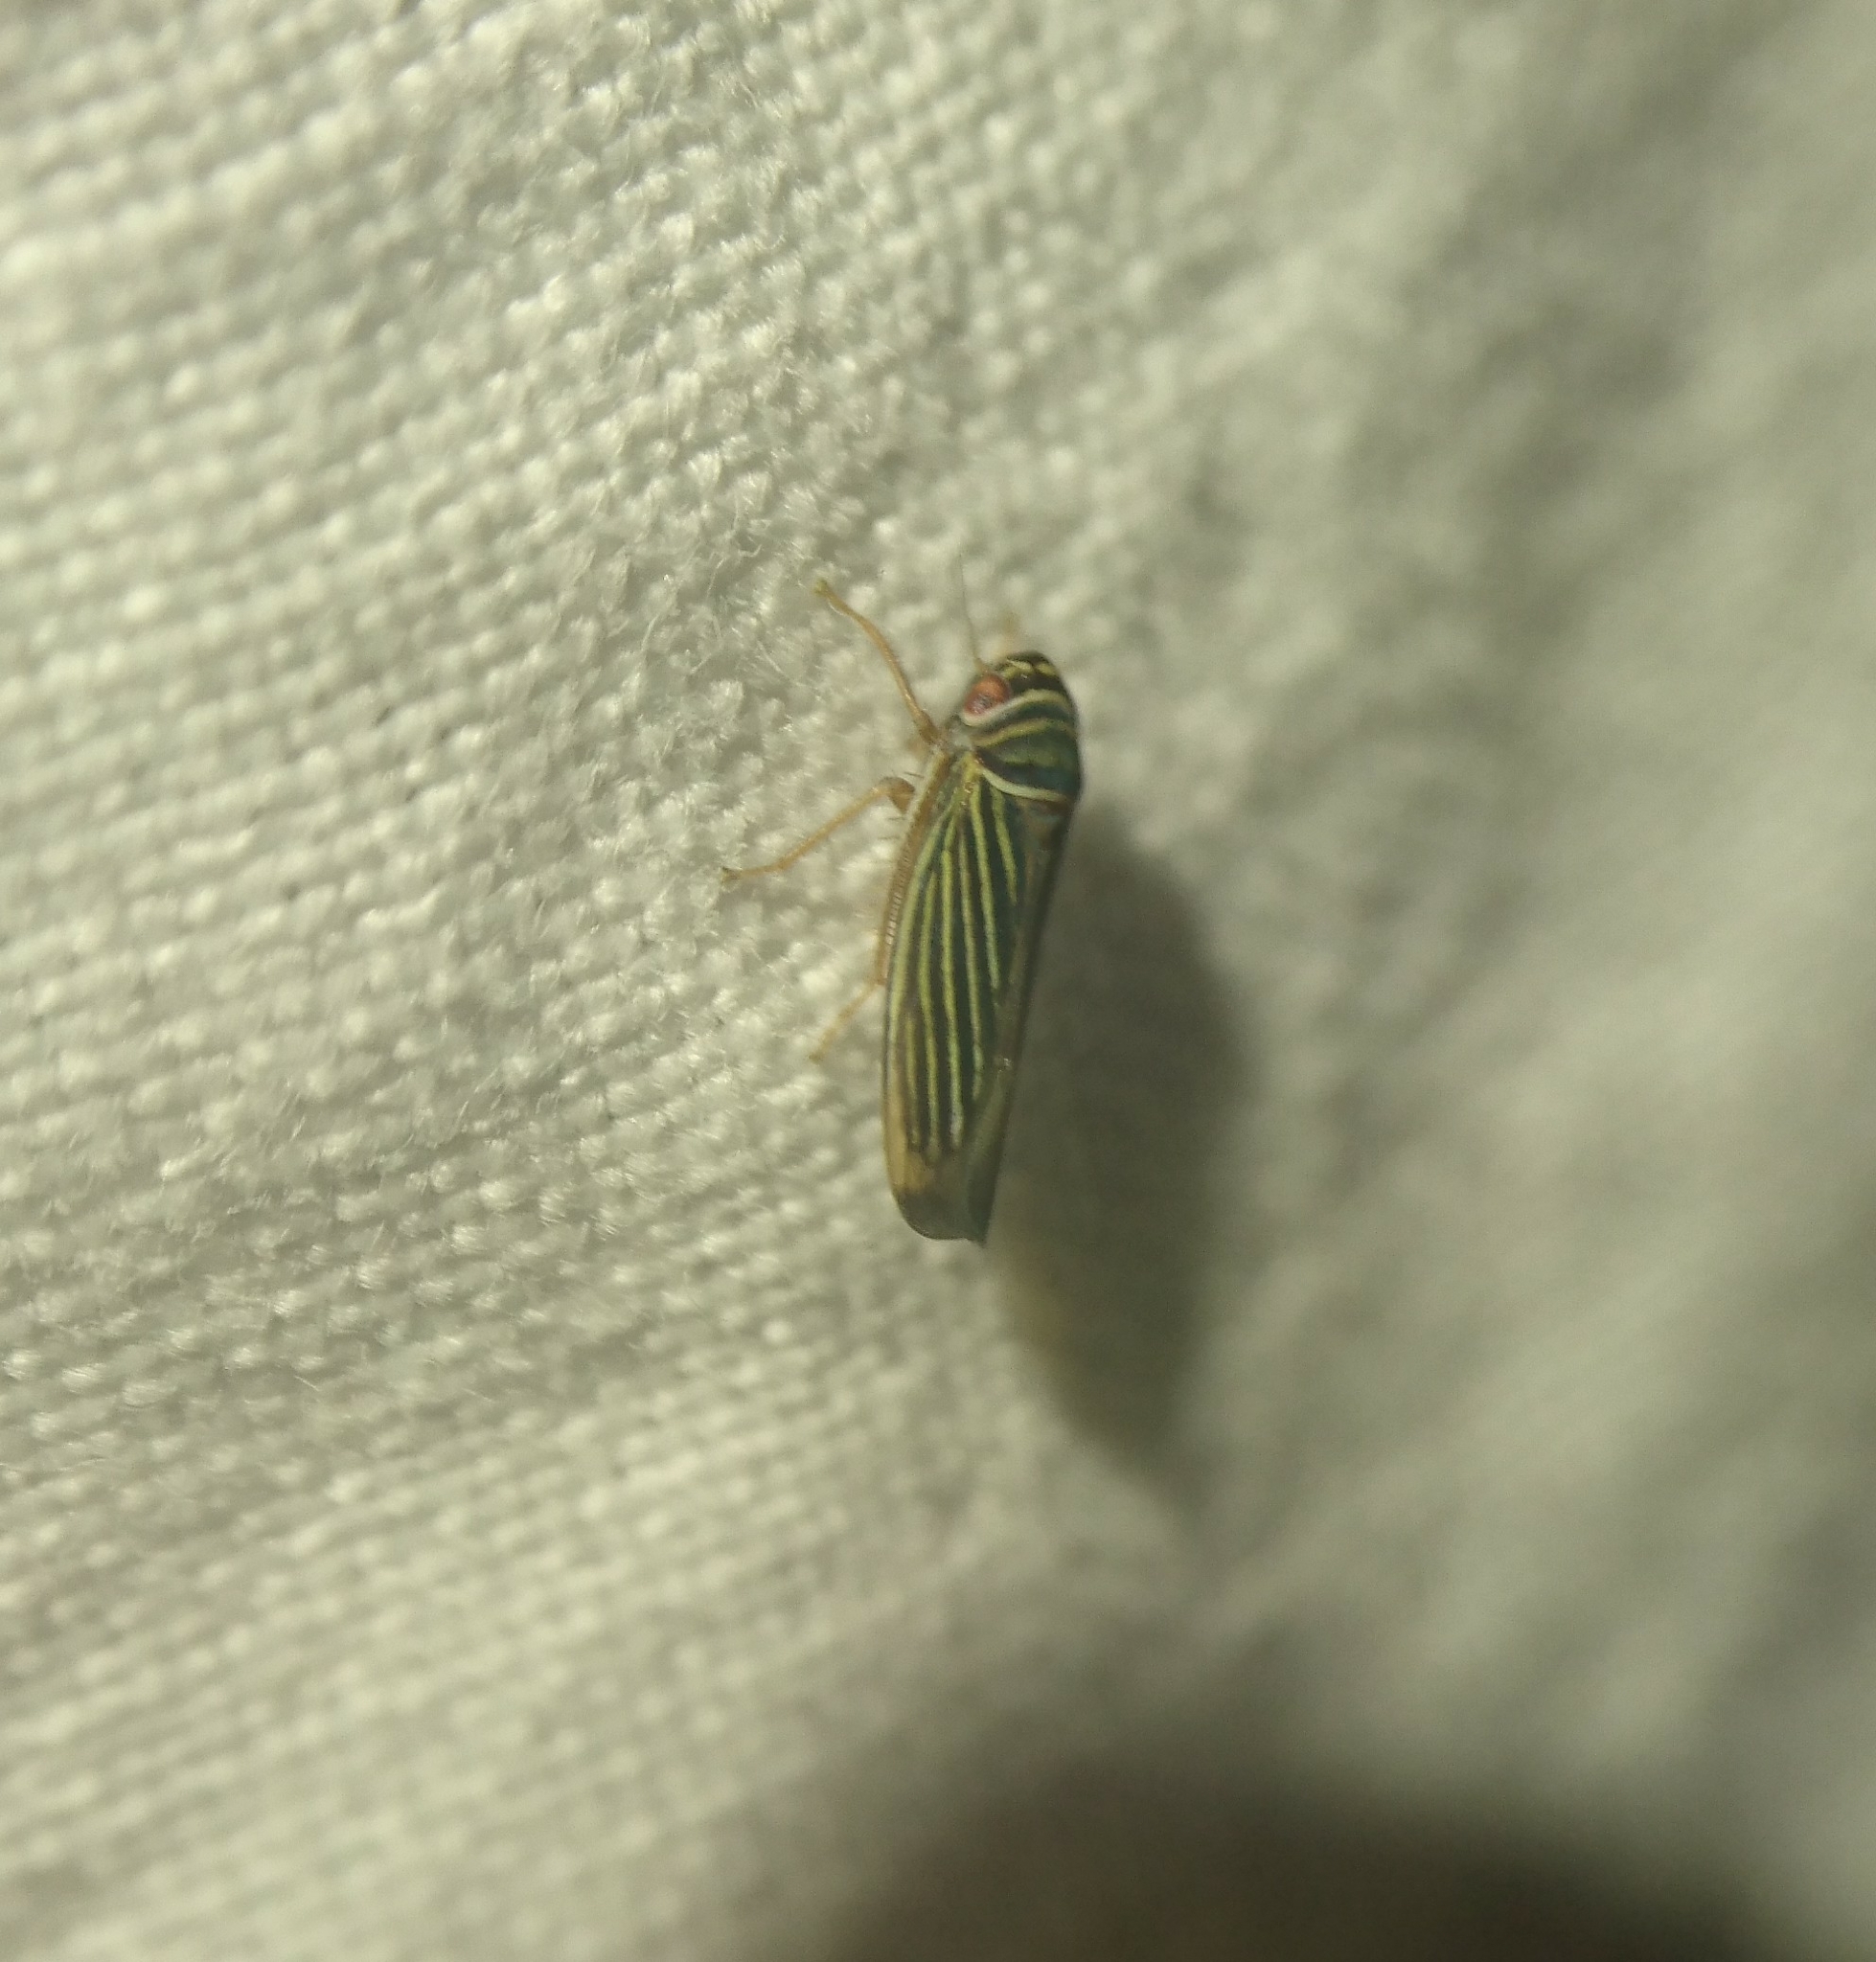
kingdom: Animalia
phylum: Arthropoda
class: Insecta
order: Hemiptera
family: Cicadellidae
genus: Tylozygus
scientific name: Tylozygus bifidus
